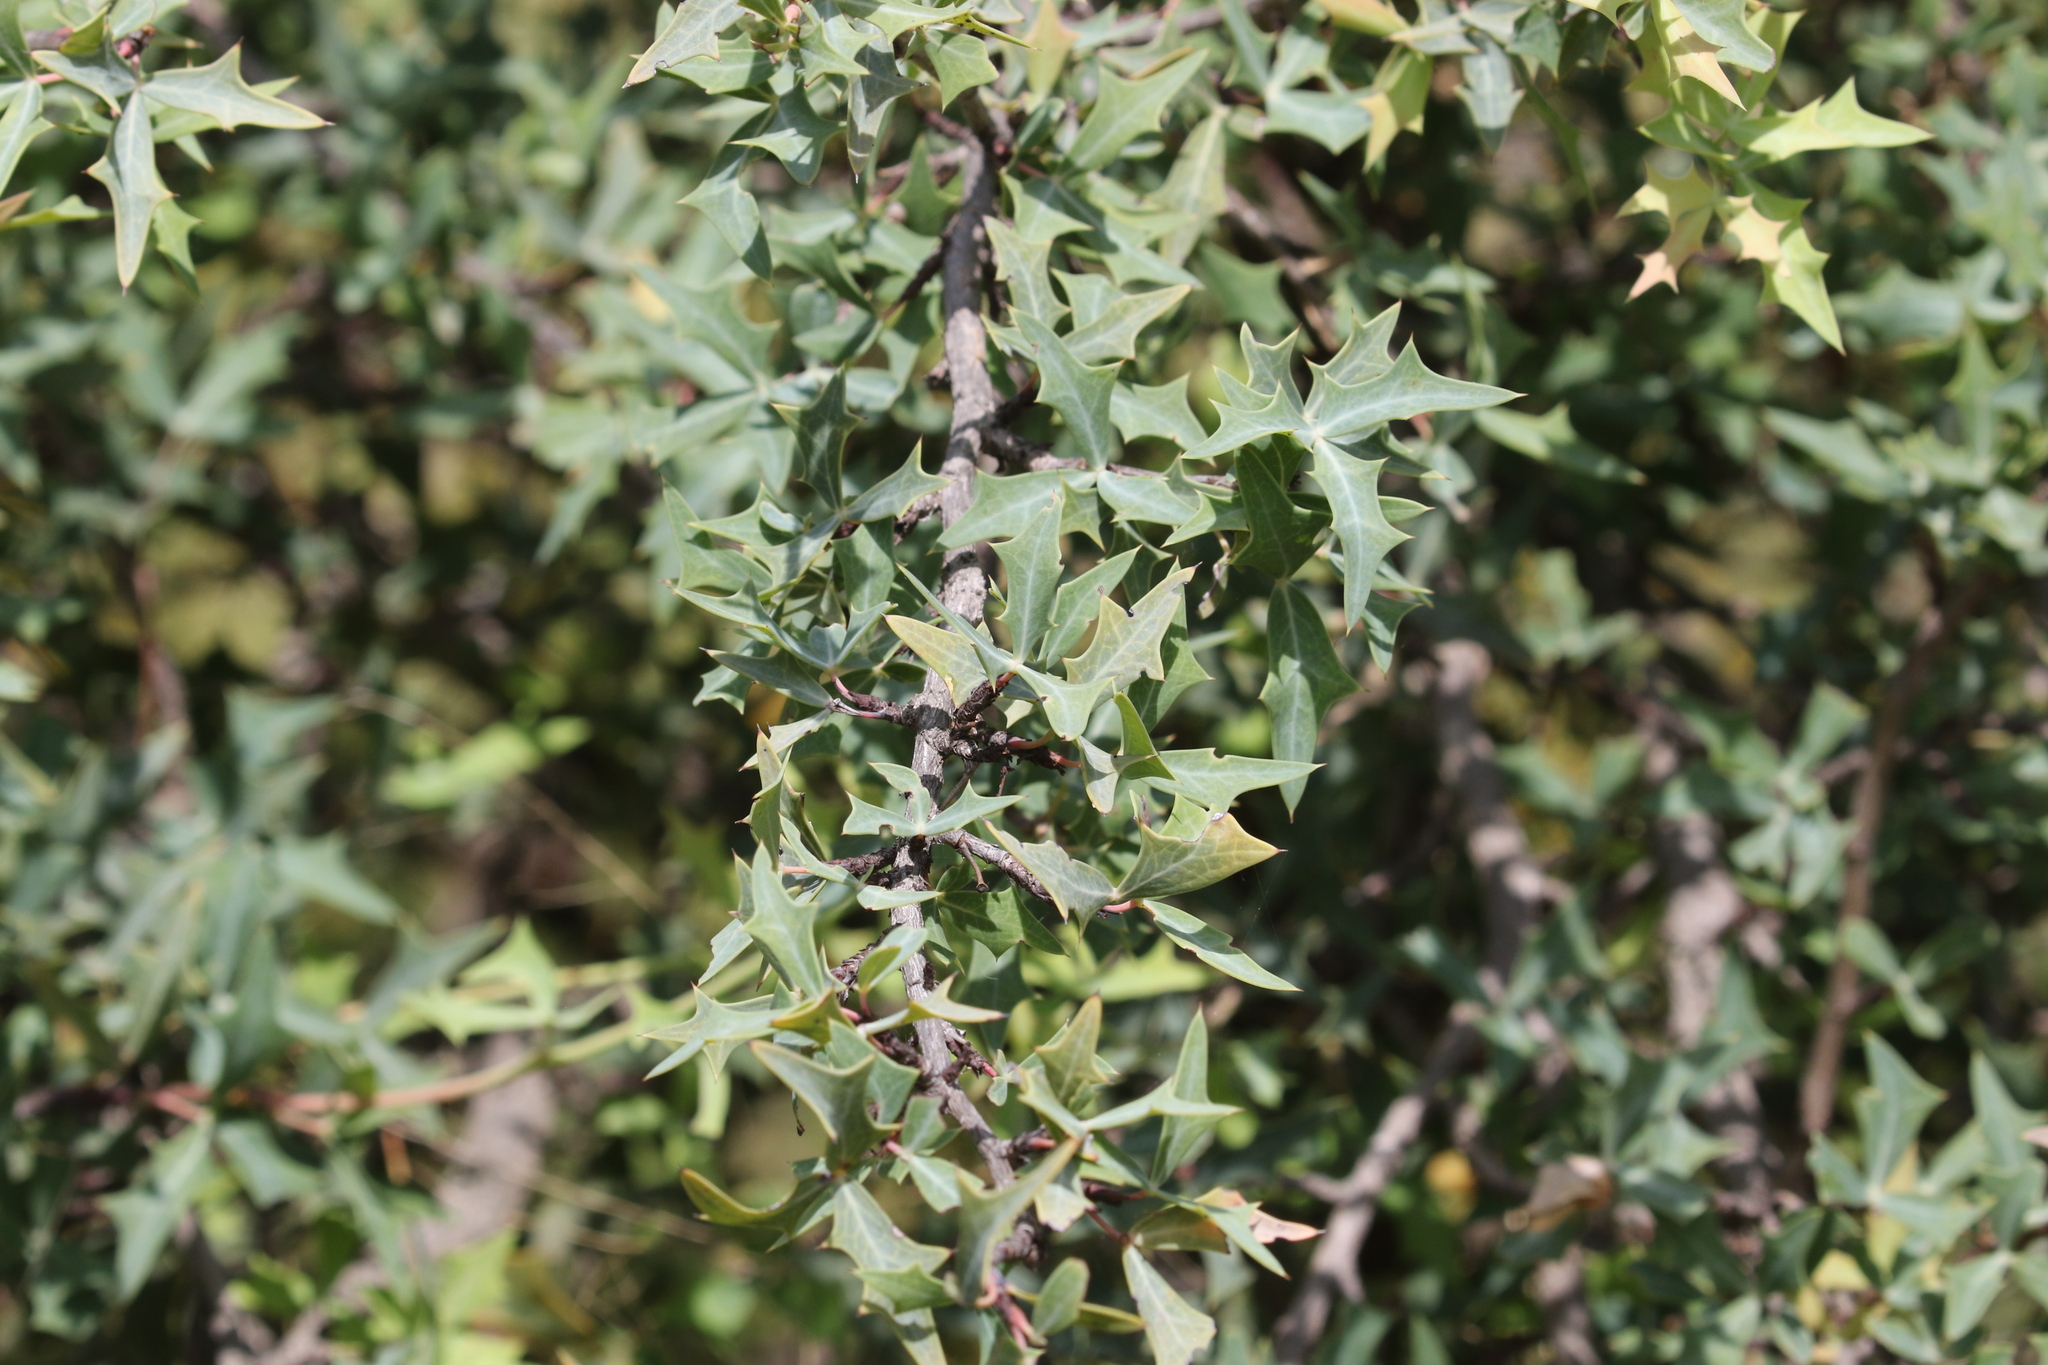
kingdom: Plantae
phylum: Tracheophyta
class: Magnoliopsida
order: Ranunculales
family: Berberidaceae
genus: Alloberberis
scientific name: Alloberberis trifoliolata
